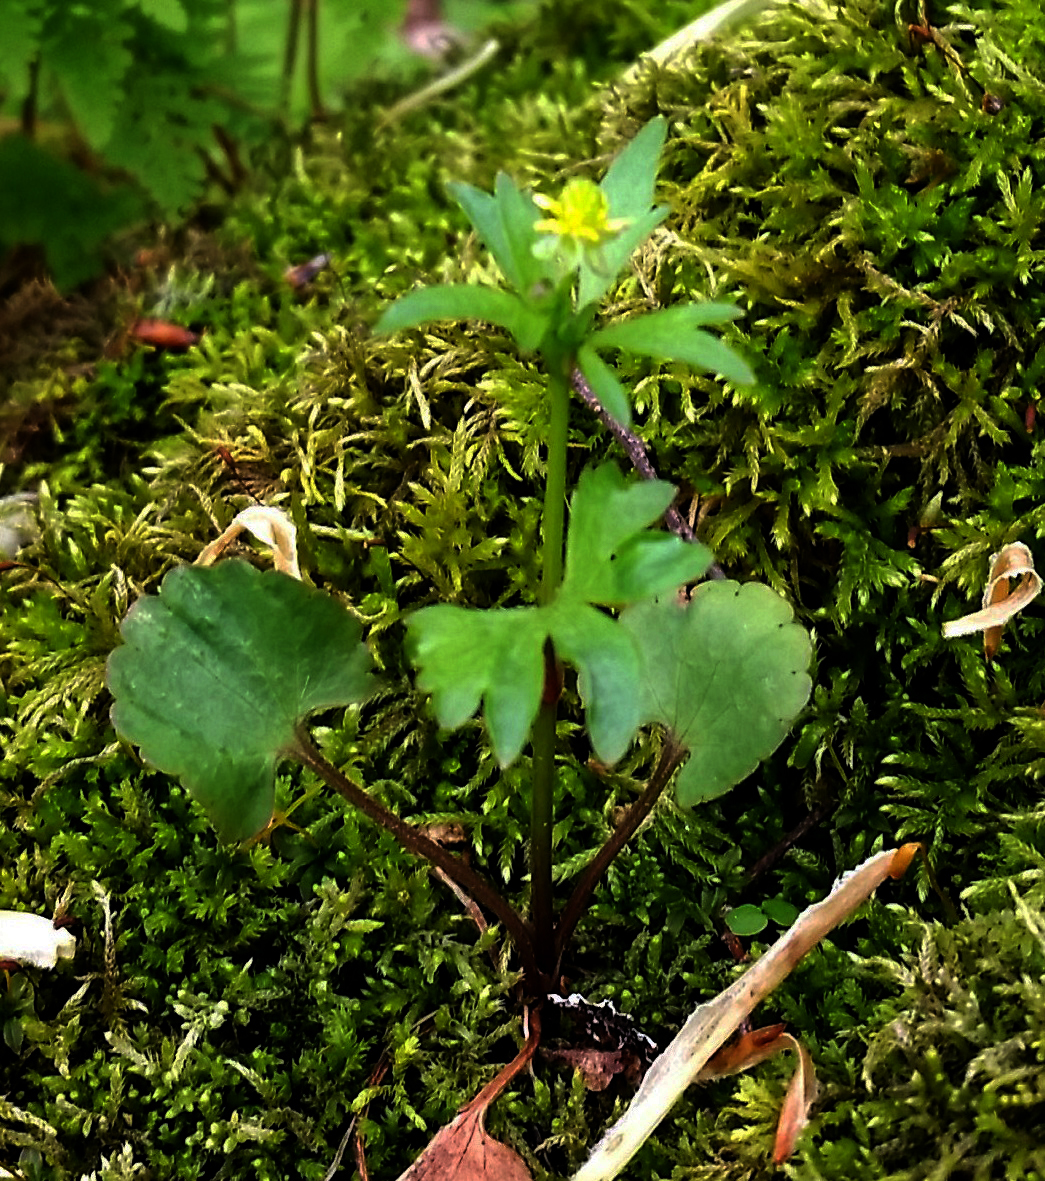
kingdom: Plantae
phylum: Tracheophyta
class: Magnoliopsida
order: Ranunculales
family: Ranunculaceae
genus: Ranunculus
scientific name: Ranunculus abortivus
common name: Early wood buttercup
